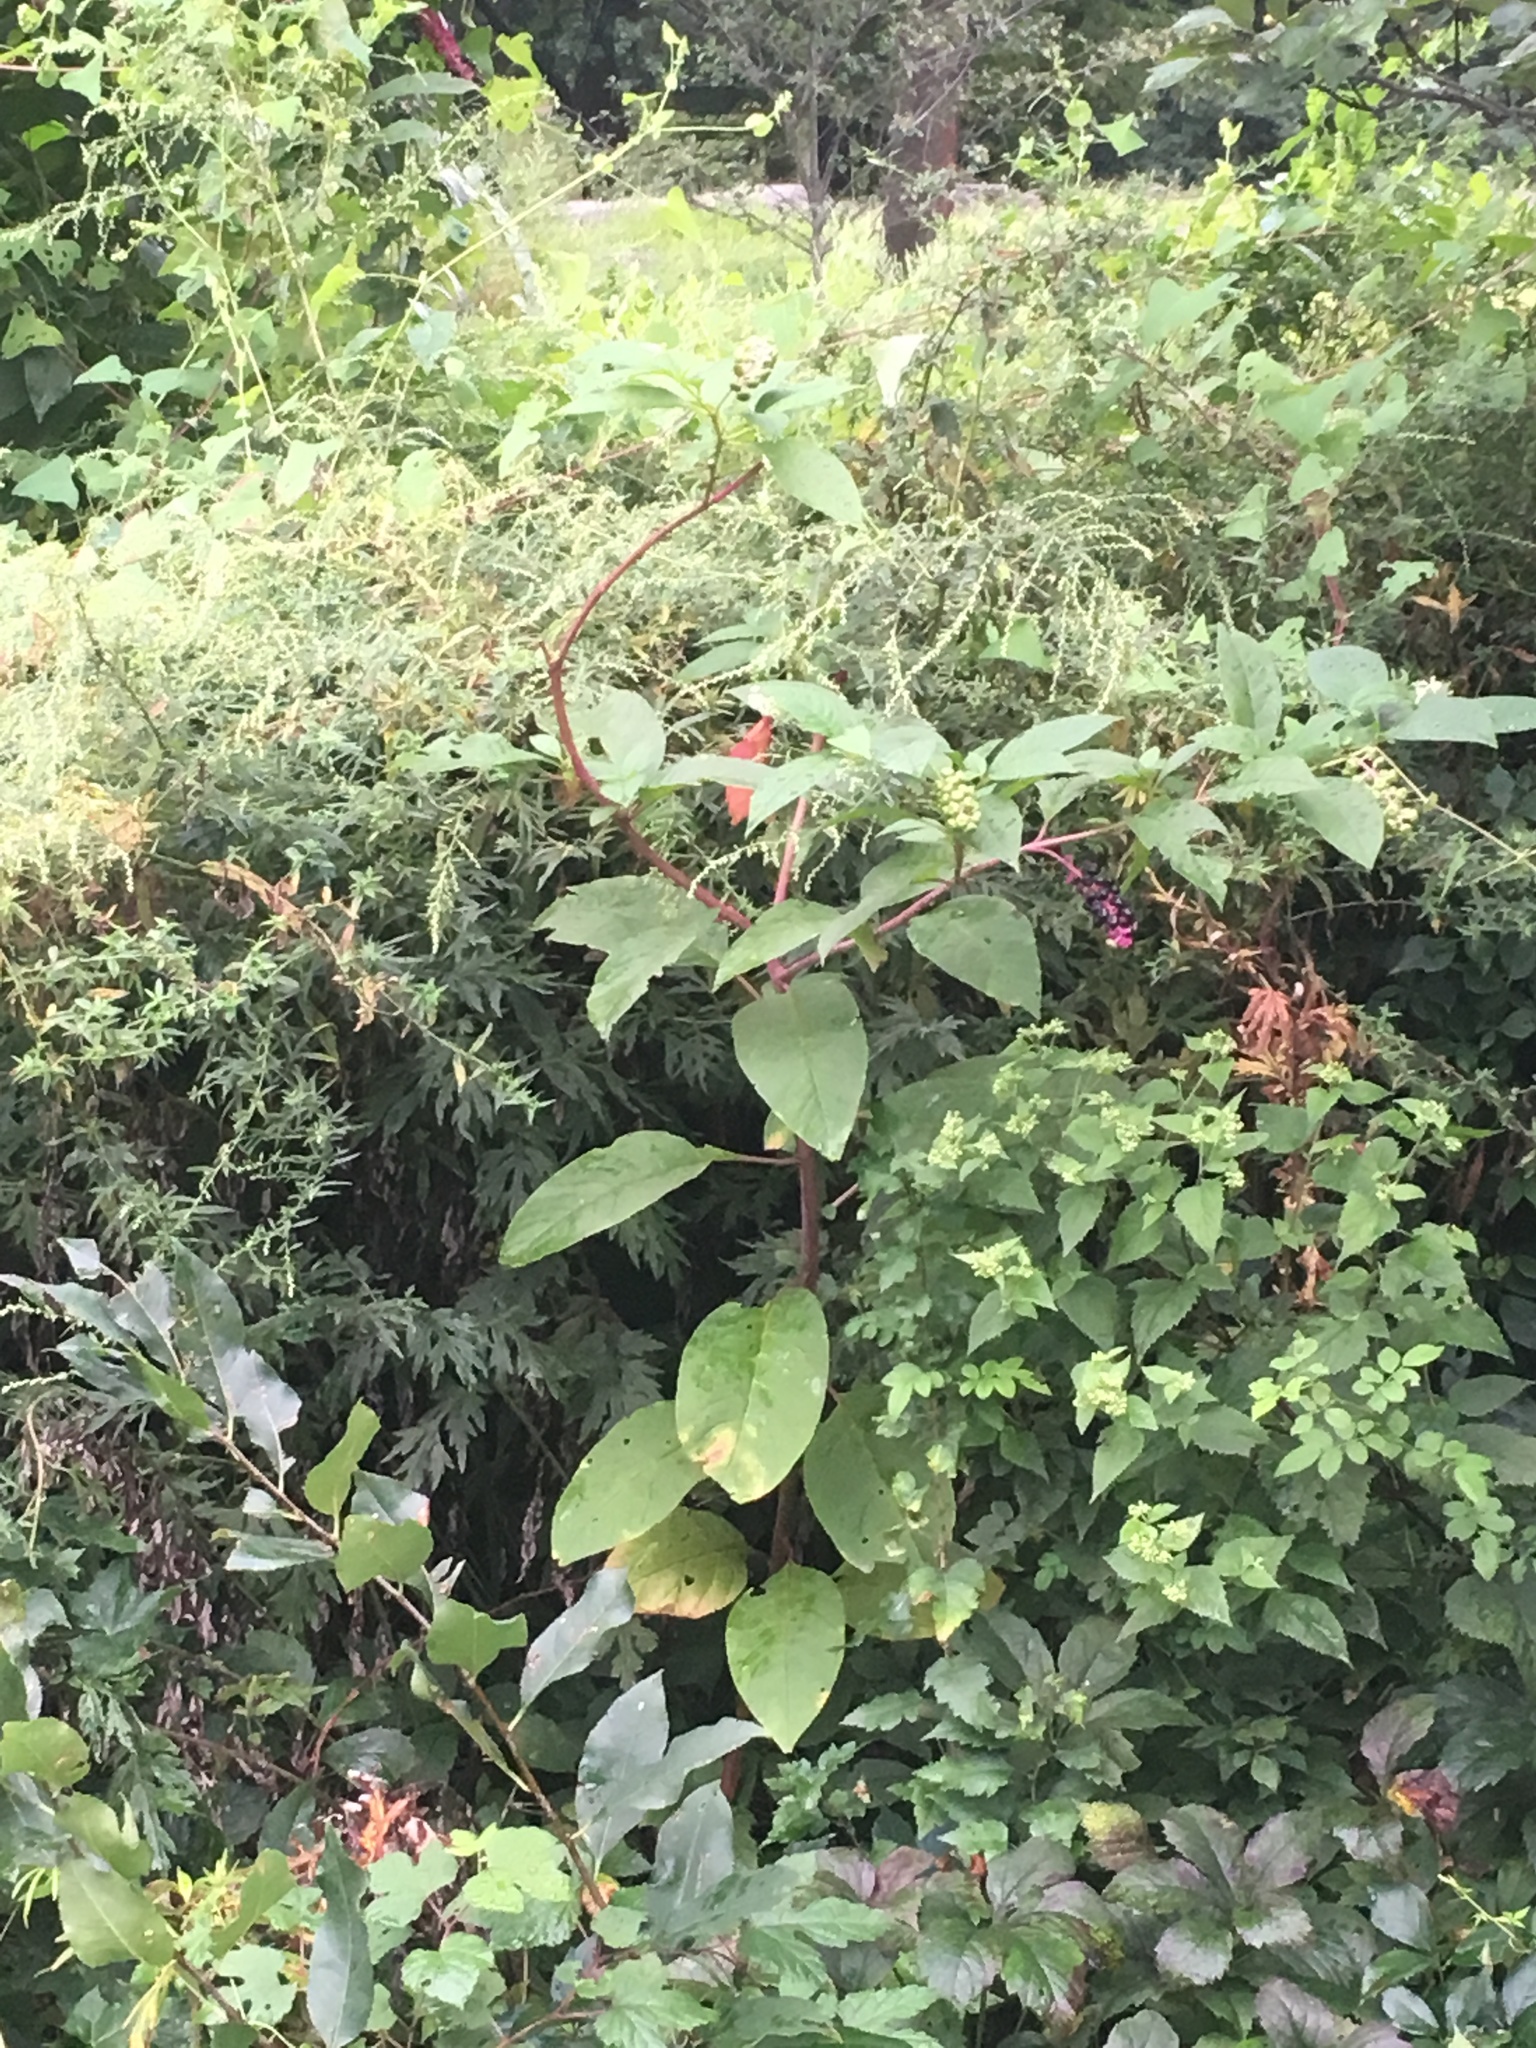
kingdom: Plantae
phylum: Tracheophyta
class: Magnoliopsida
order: Caryophyllales
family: Phytolaccaceae
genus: Phytolacca
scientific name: Phytolacca americana
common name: American pokeweed
